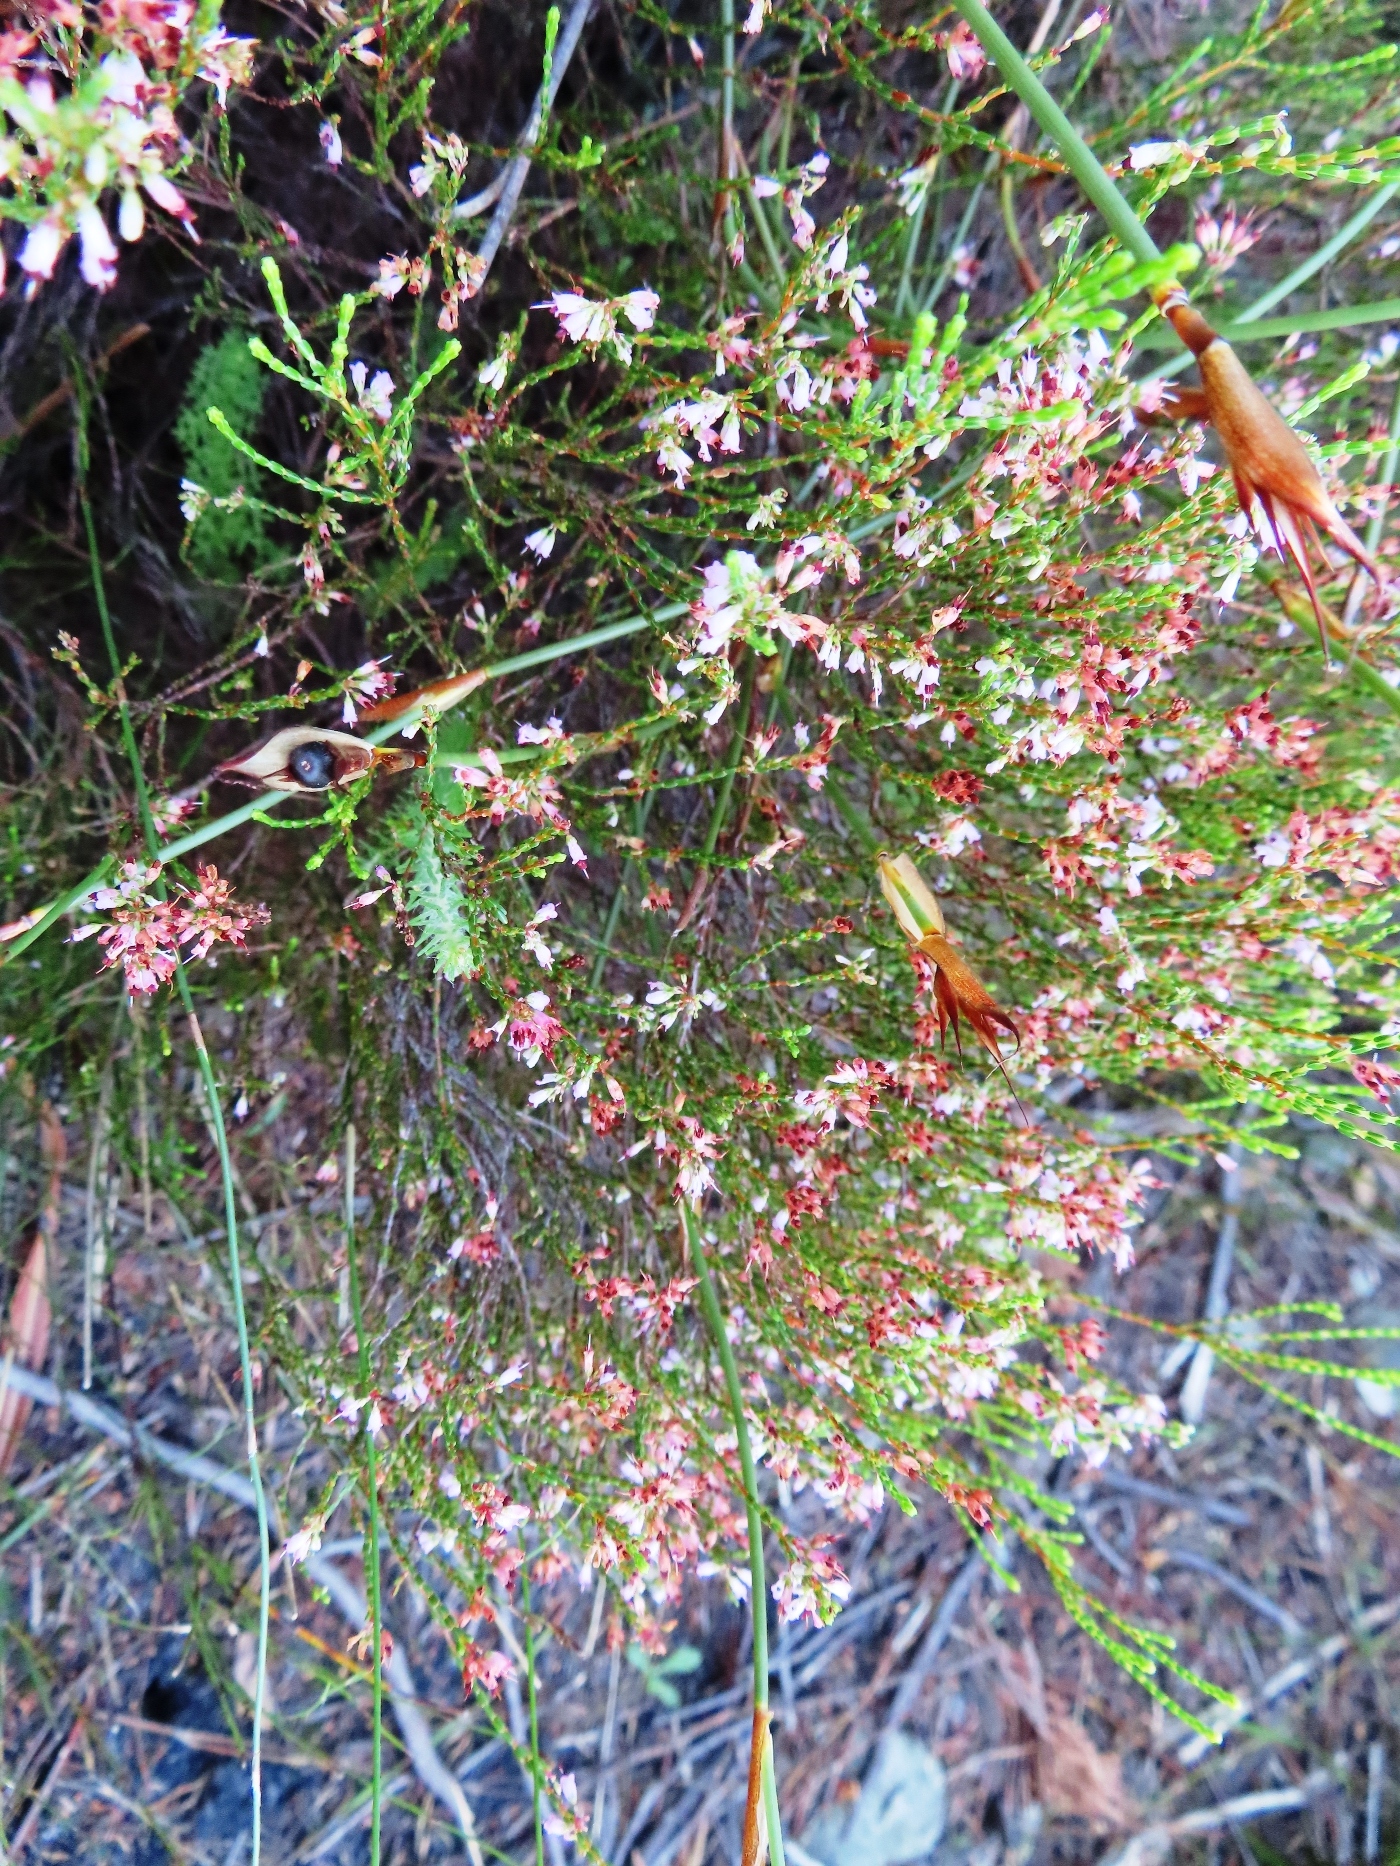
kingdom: Plantae
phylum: Tracheophyta
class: Magnoliopsida
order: Ericales
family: Ericaceae
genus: Erica
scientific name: Erica equisetifolia
